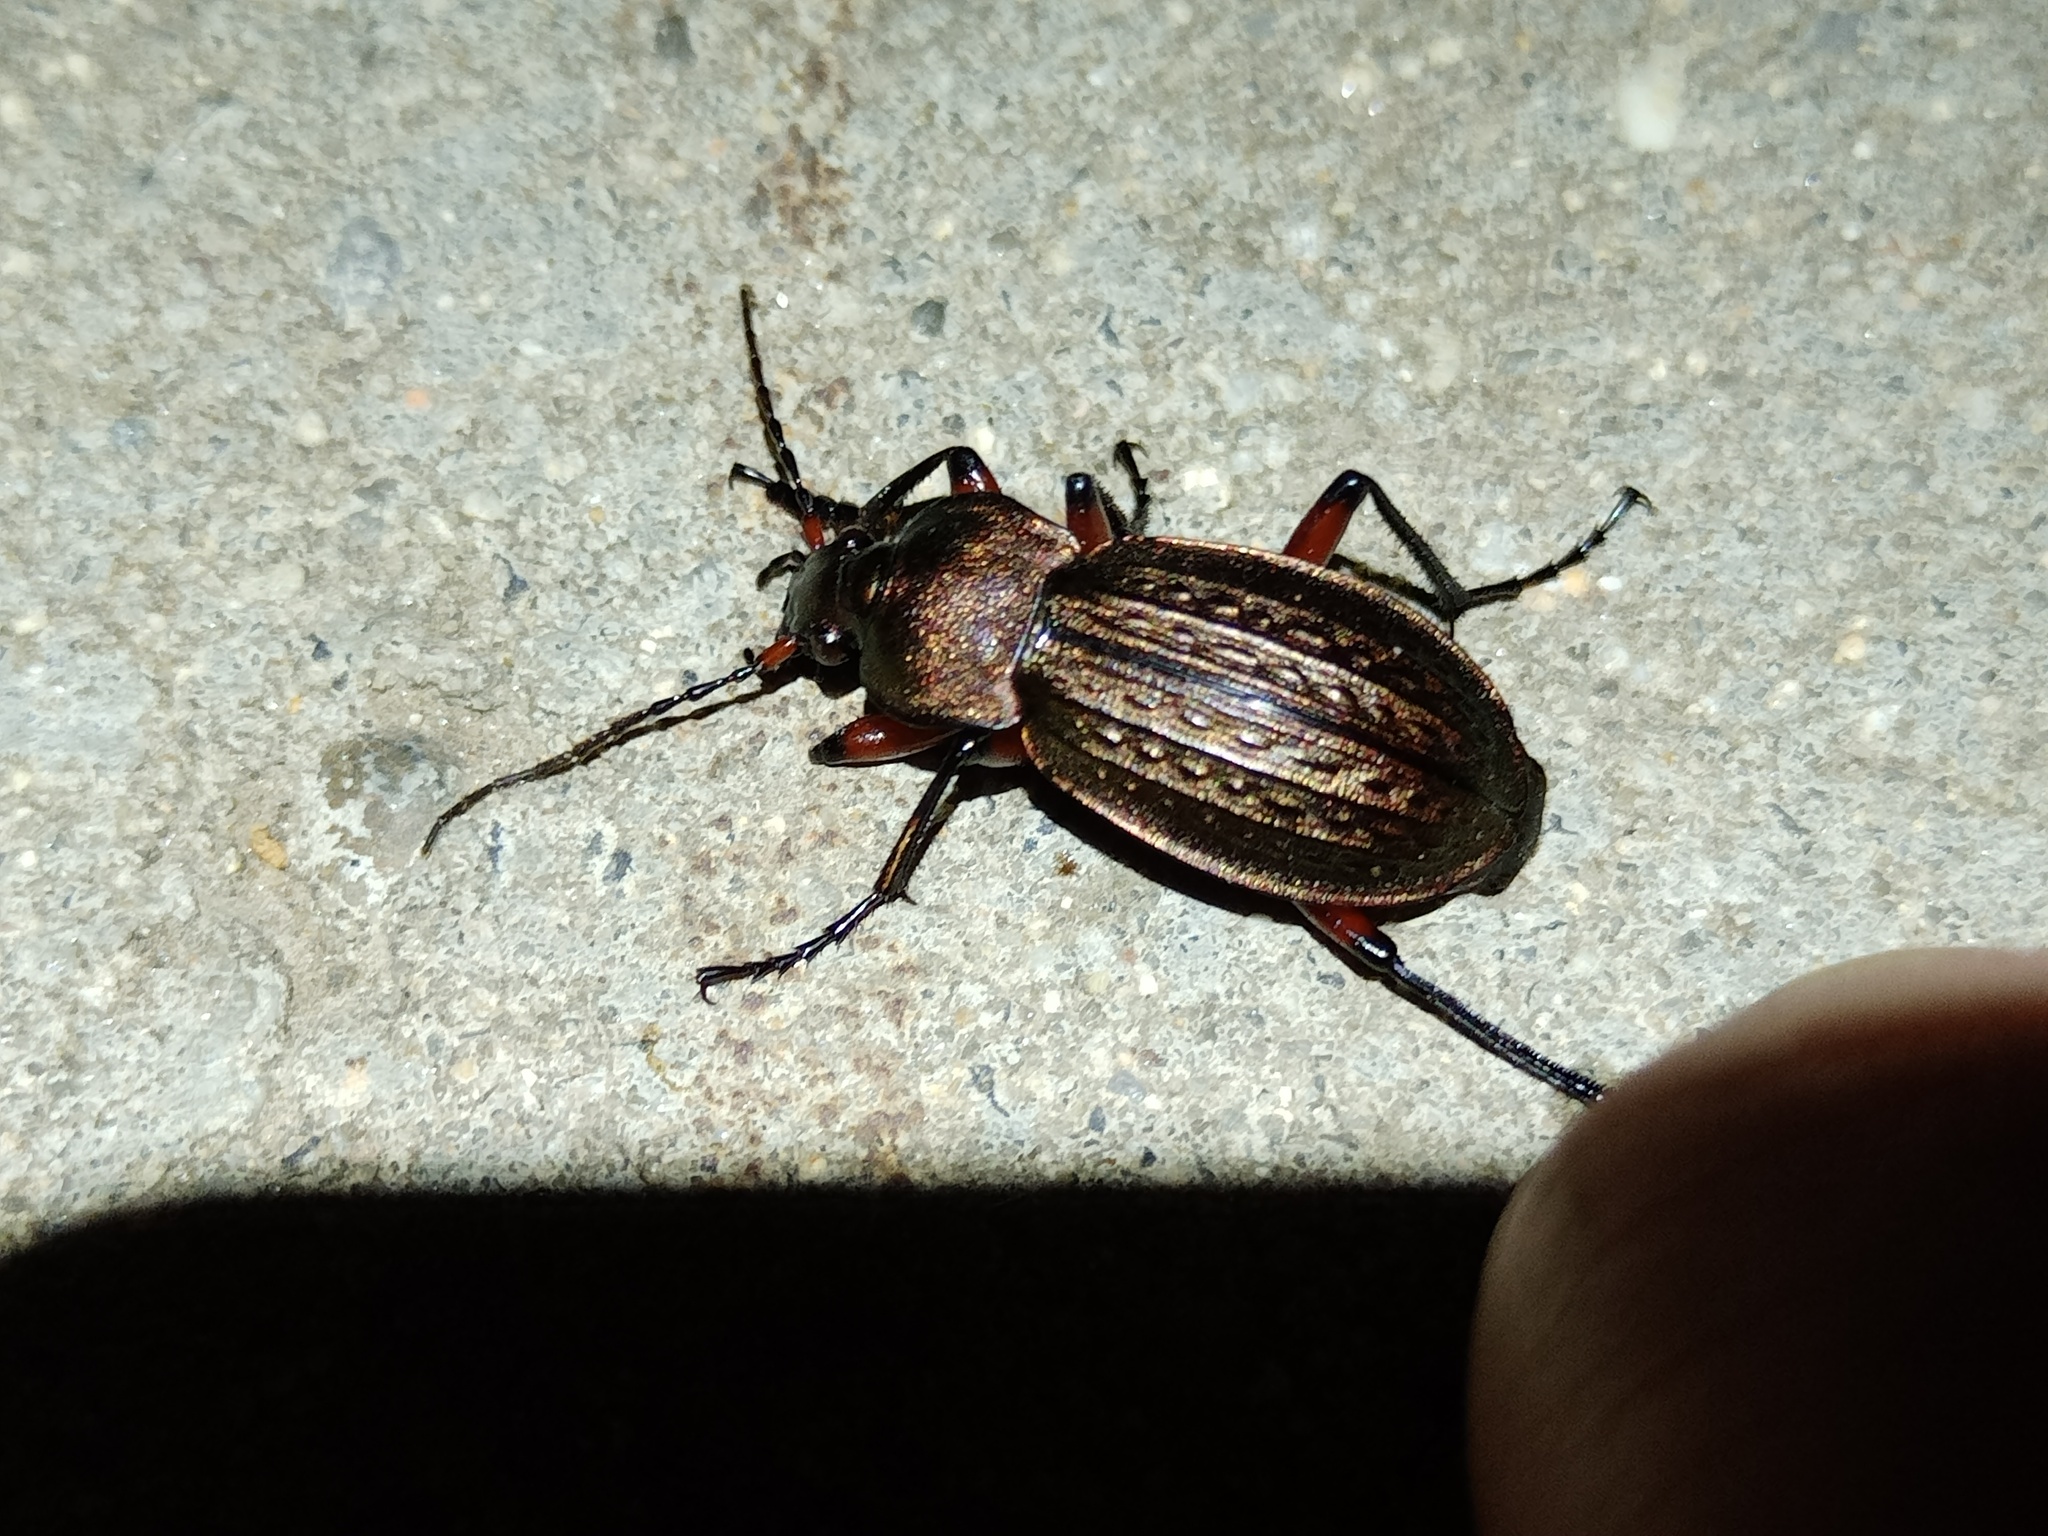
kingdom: Animalia
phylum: Arthropoda
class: Insecta
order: Coleoptera
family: Carabidae
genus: Carabus
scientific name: Carabus cancellatus
